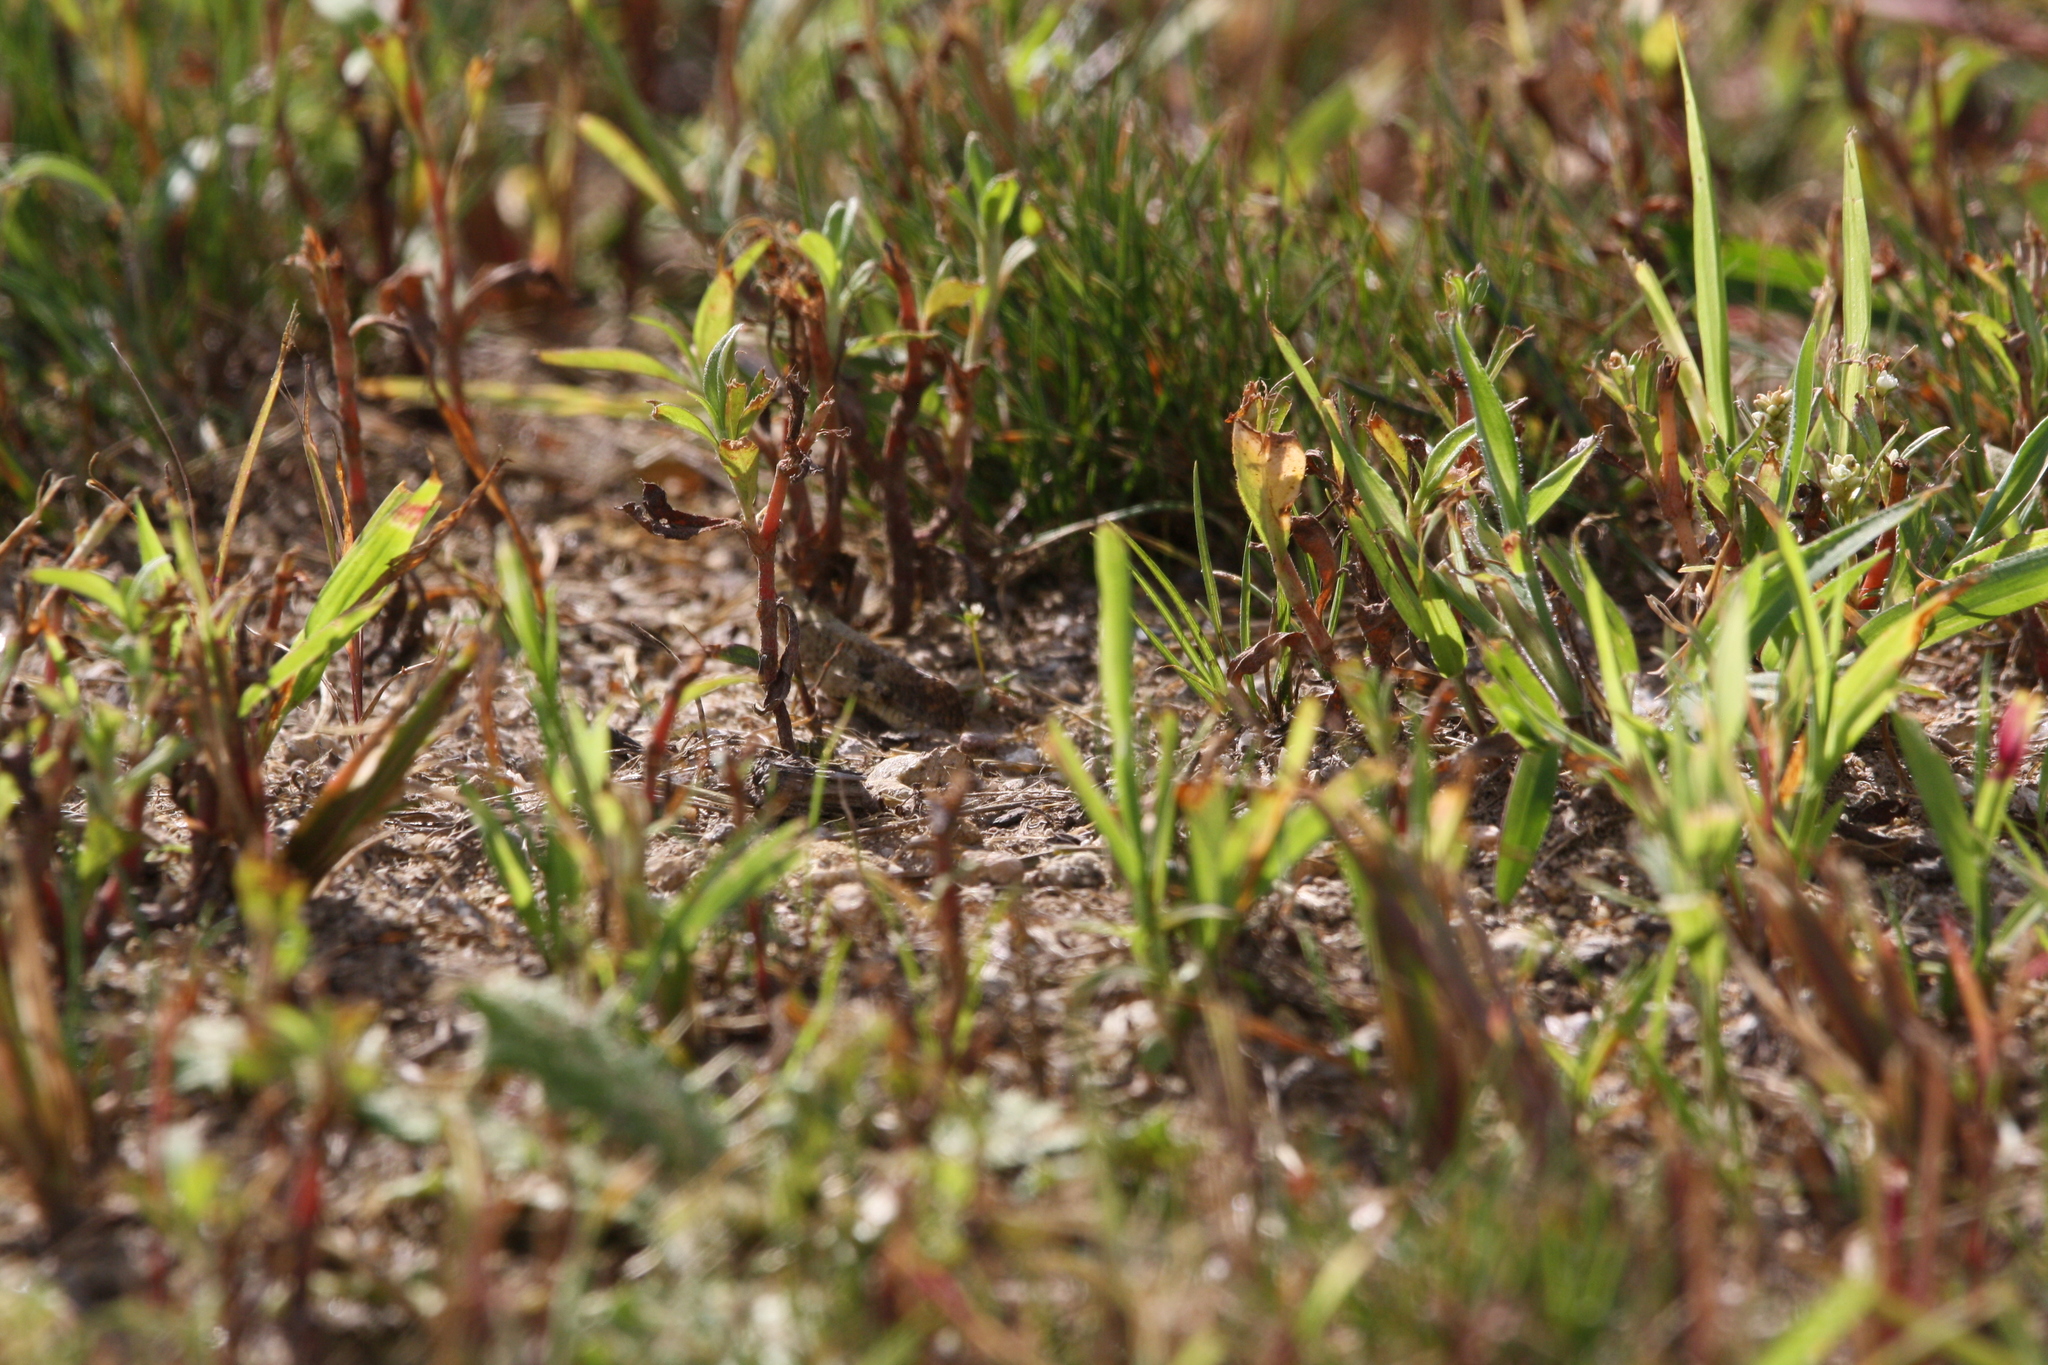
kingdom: Animalia
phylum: Arthropoda
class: Insecta
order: Orthoptera
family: Acrididae
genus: Dissosteira
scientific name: Dissosteira carolina
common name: Carolina grasshopper
